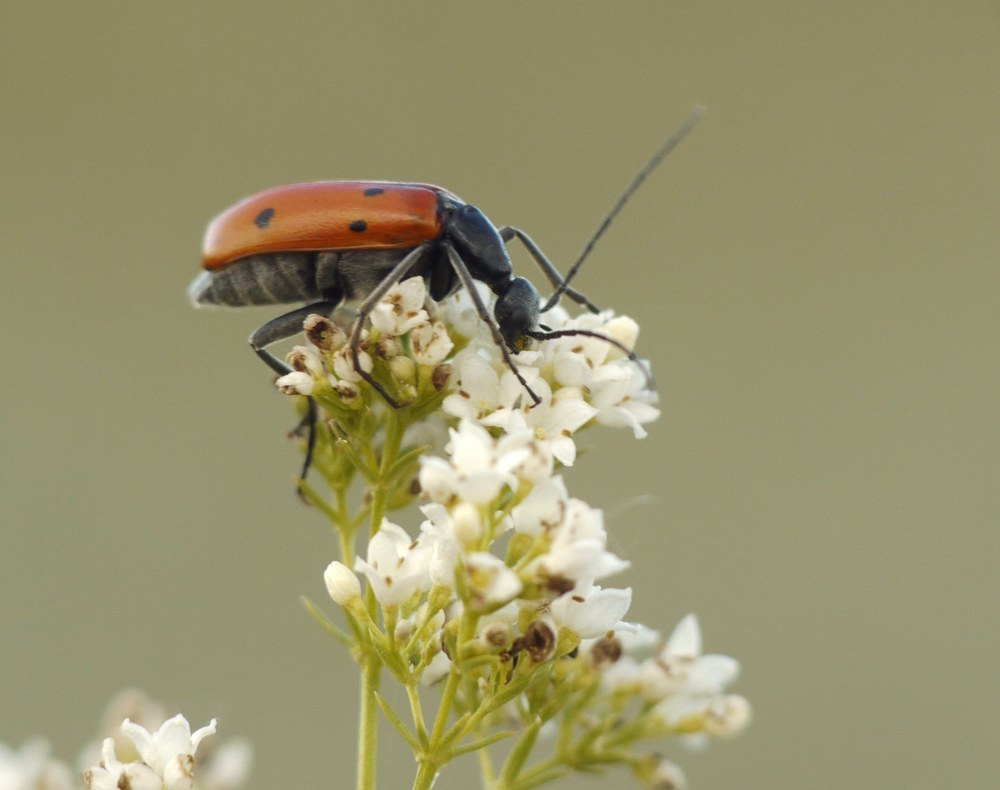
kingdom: Animalia
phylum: Arthropoda
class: Insecta
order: Coleoptera
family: Meloidae
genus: Stenodera
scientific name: Stenodera caucasica
